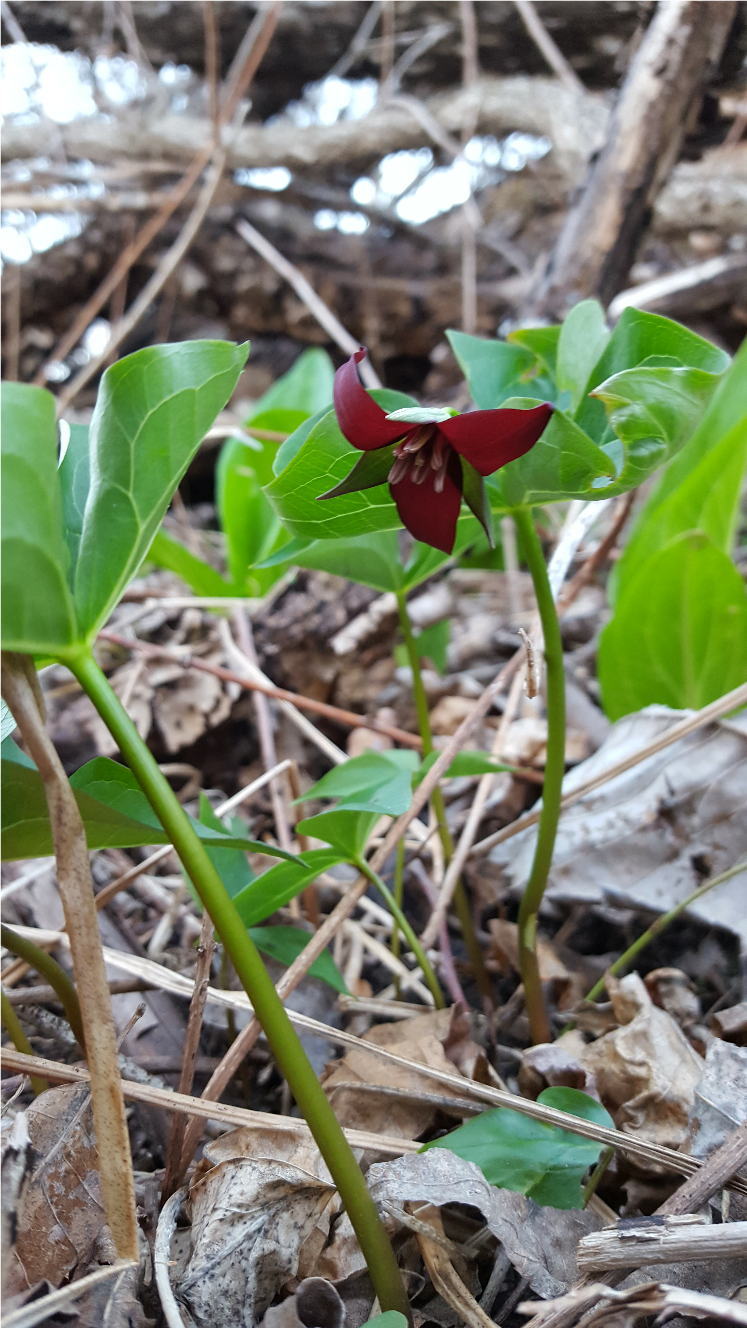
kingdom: Plantae
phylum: Tracheophyta
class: Liliopsida
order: Liliales
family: Melanthiaceae
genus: Trillium
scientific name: Trillium erectum
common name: Purple trillium
